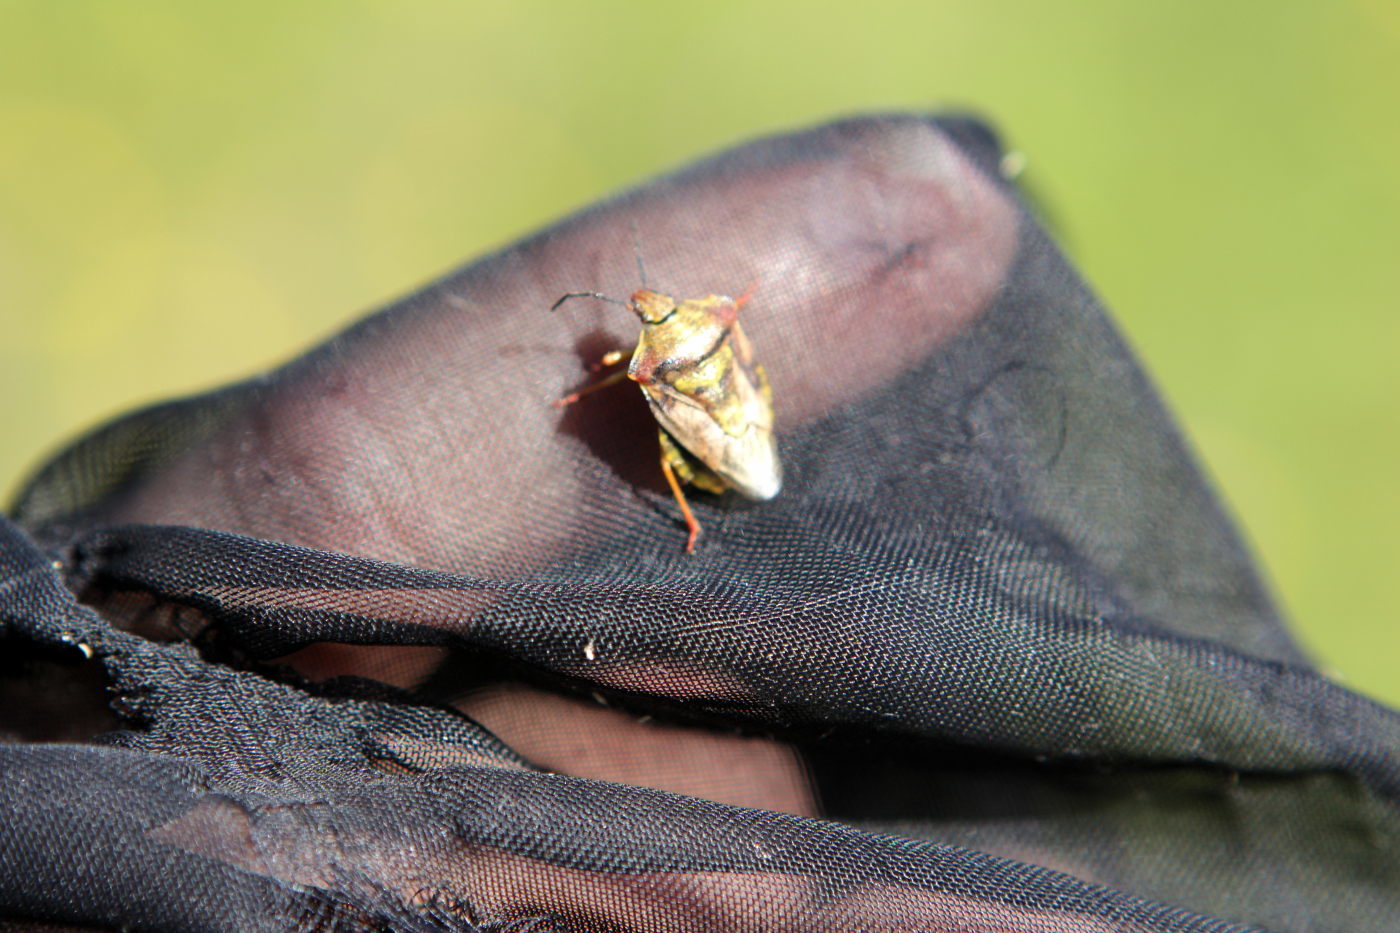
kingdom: Animalia
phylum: Arthropoda
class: Insecta
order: Hemiptera
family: Pentatomidae
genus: Carpocoris
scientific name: Carpocoris purpureipennis
